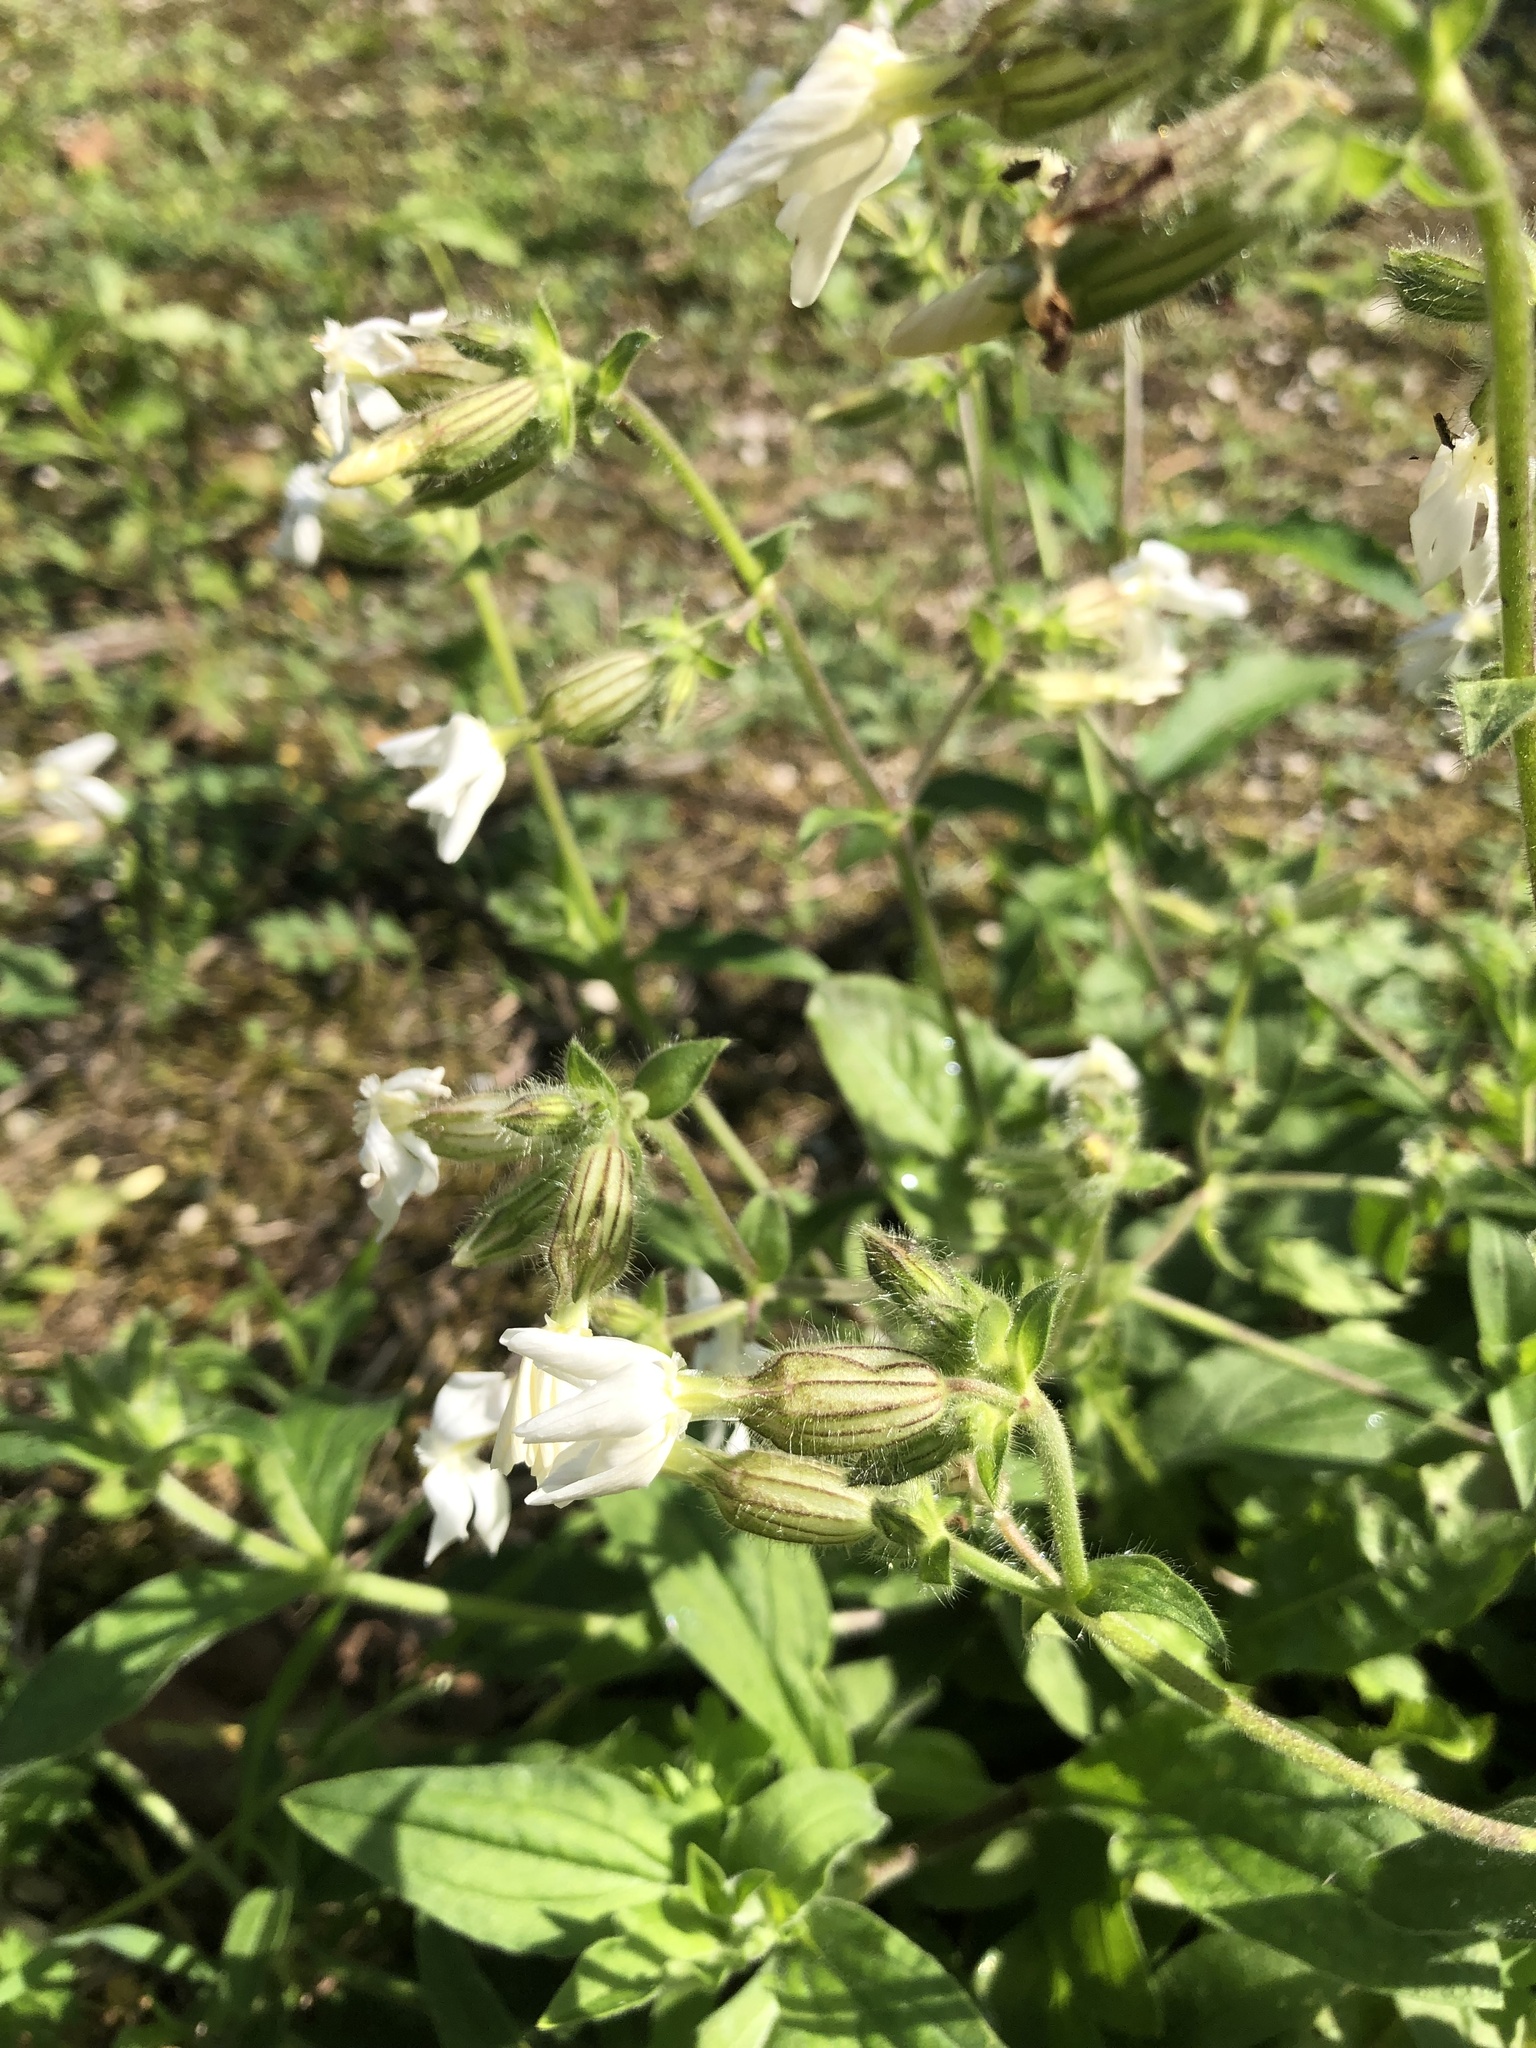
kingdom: Plantae
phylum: Tracheophyta
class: Magnoliopsida
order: Caryophyllales
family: Caryophyllaceae
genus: Silene
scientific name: Silene latifolia
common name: White campion
